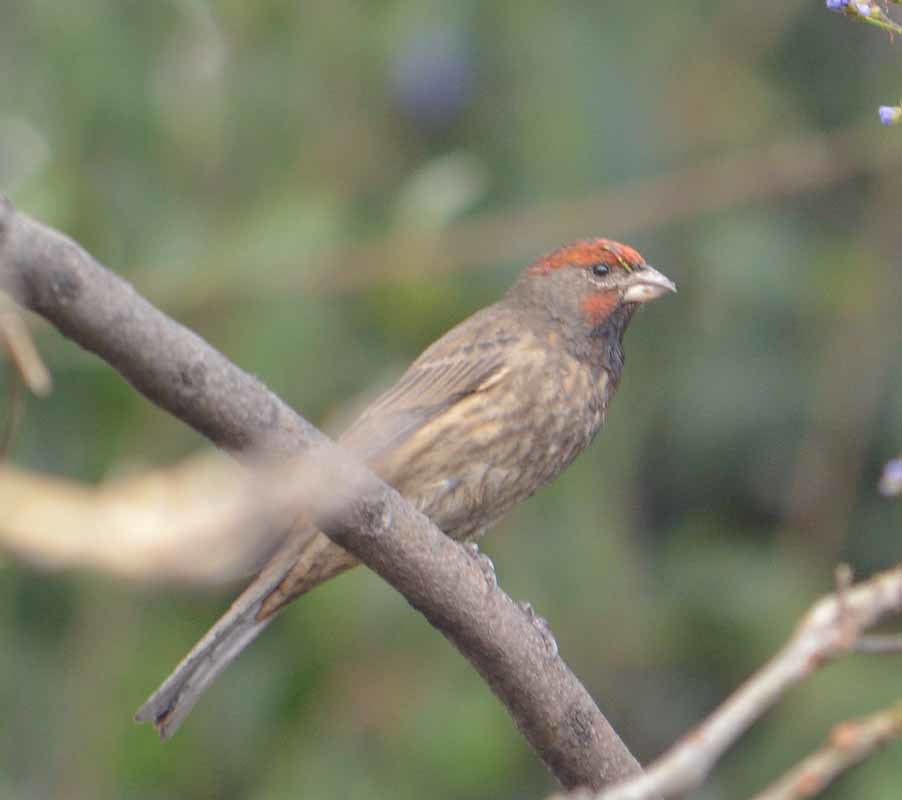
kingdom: Animalia
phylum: Chordata
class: Aves
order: Passeriformes
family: Fringillidae
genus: Haemorhous
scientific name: Haemorhous mexicanus
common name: House finch
